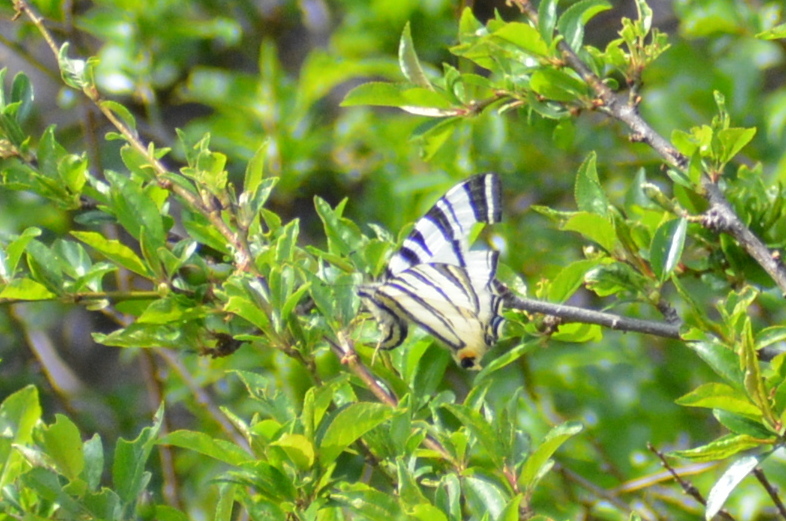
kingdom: Animalia
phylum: Arthropoda
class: Insecta
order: Lepidoptera
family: Papilionidae
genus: Iphiclides
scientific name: Iphiclides podalirius
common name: Scarce swallowtail
